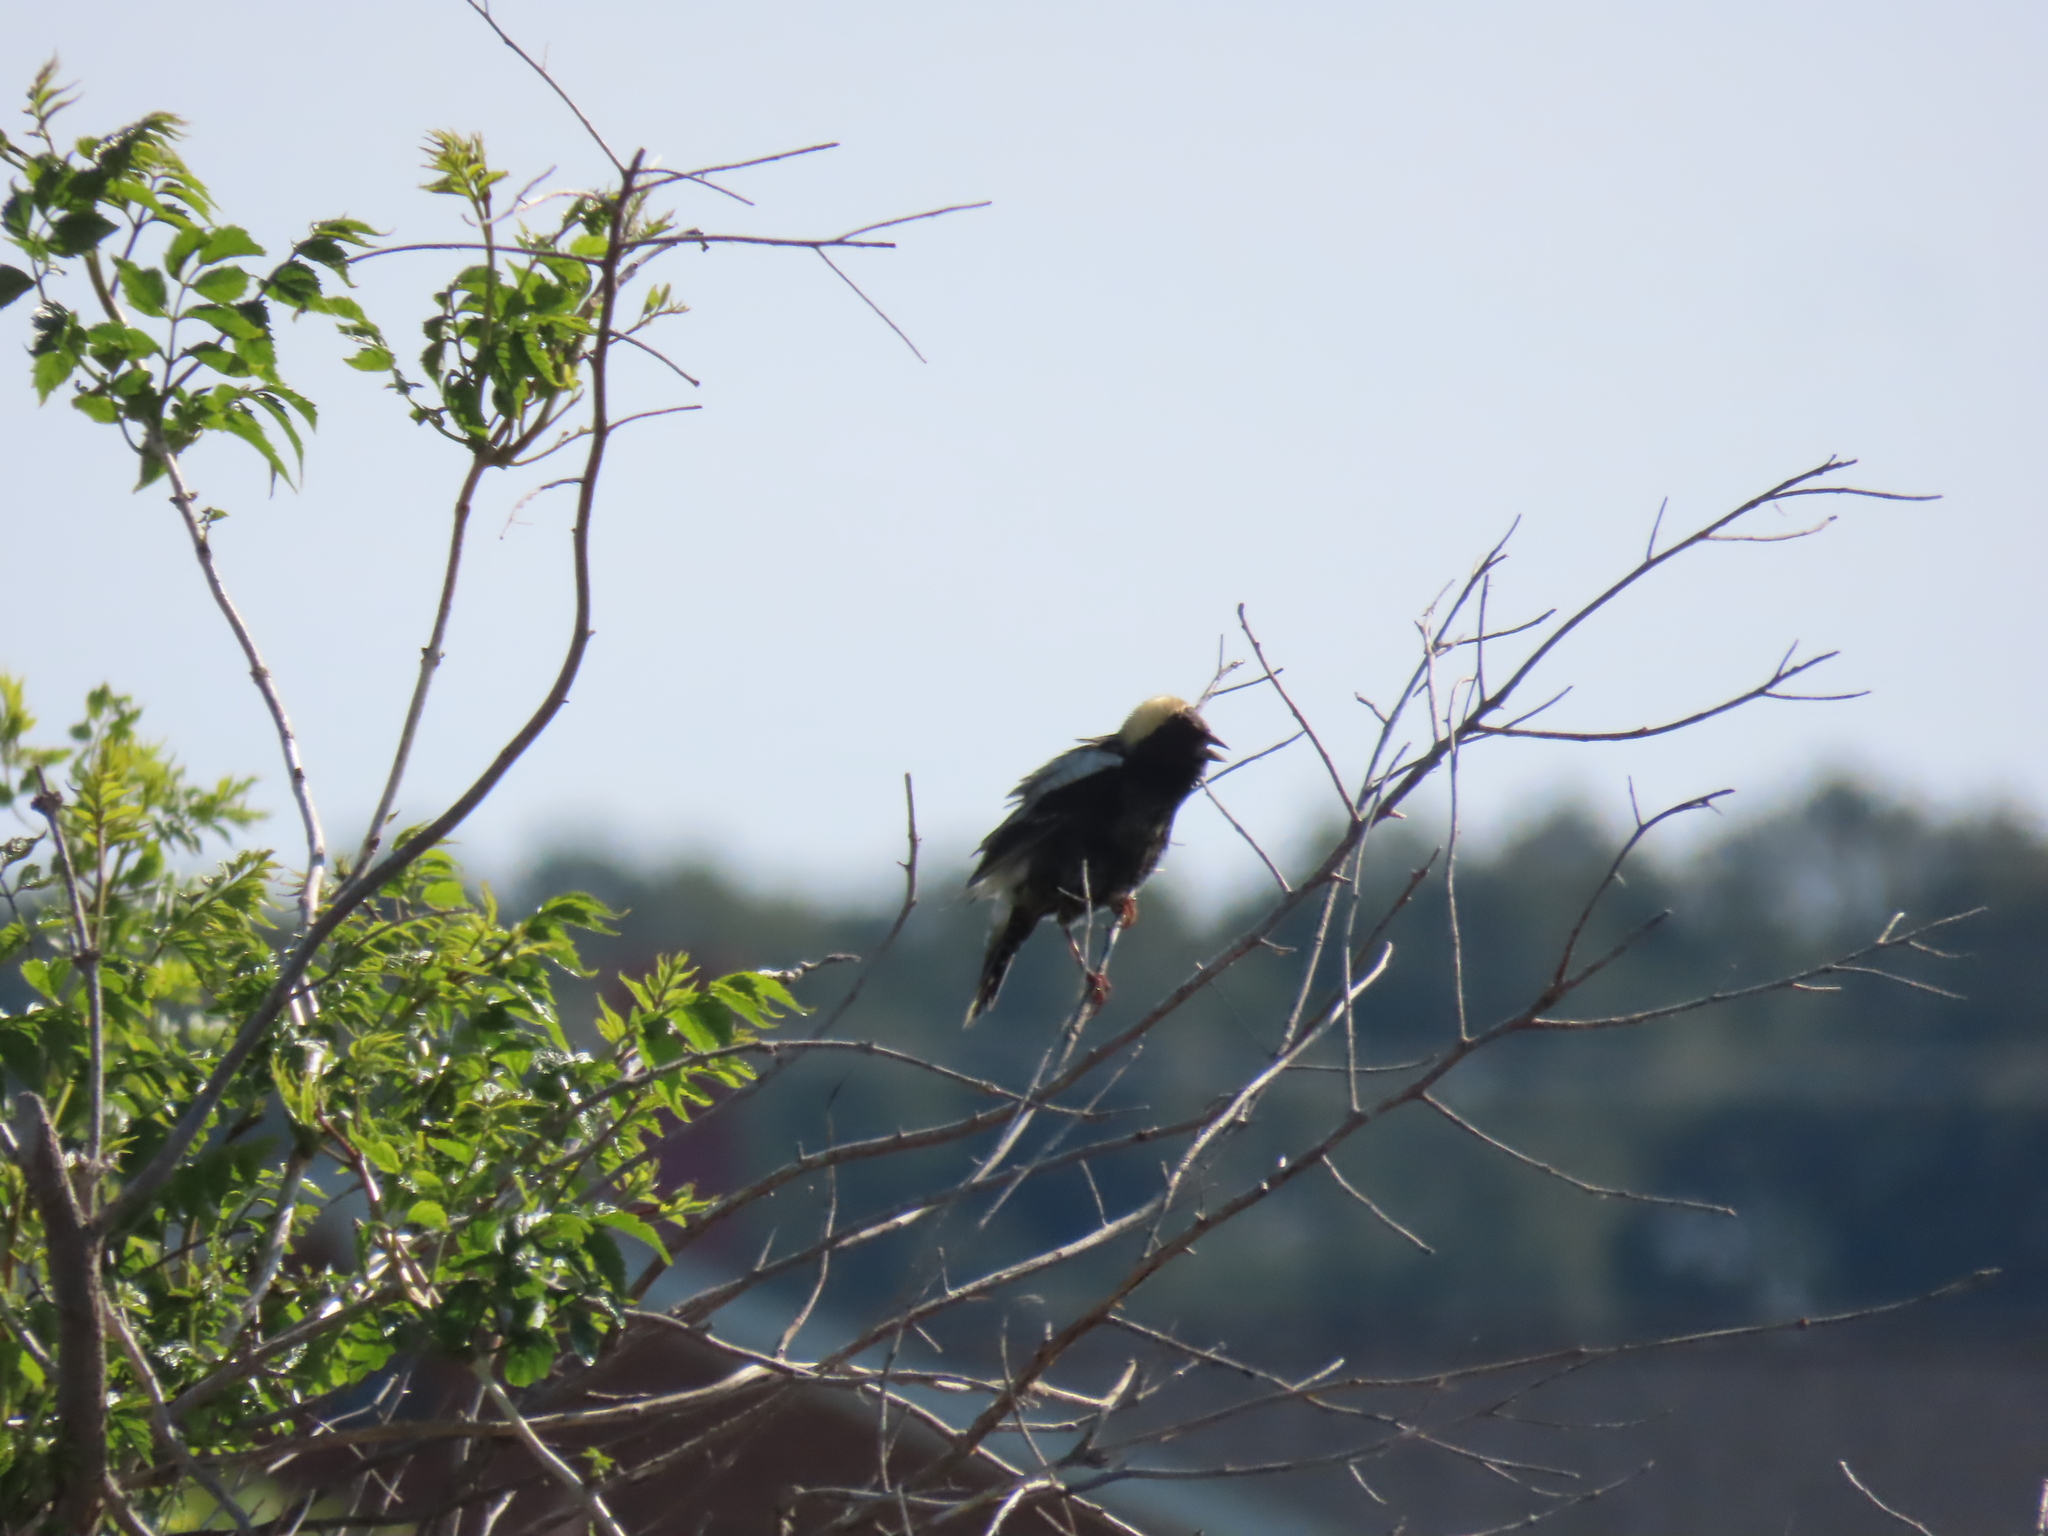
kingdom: Animalia
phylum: Chordata
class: Aves
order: Passeriformes
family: Icteridae
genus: Dolichonyx
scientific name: Dolichonyx oryzivorus
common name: Bobolink
